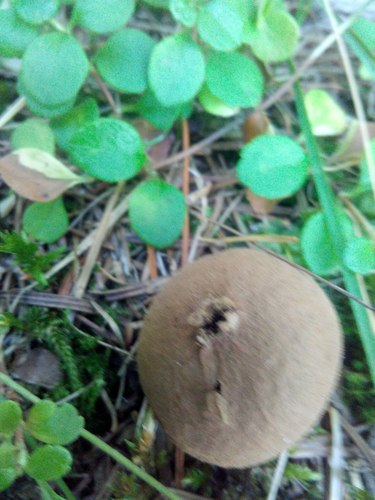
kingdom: Fungi
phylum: Basidiomycota
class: Agaricomycetes
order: Agaricales
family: Lycoperdaceae
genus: Lycoperdon
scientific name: Lycoperdon umbrinum
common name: Umber-brown puffball
